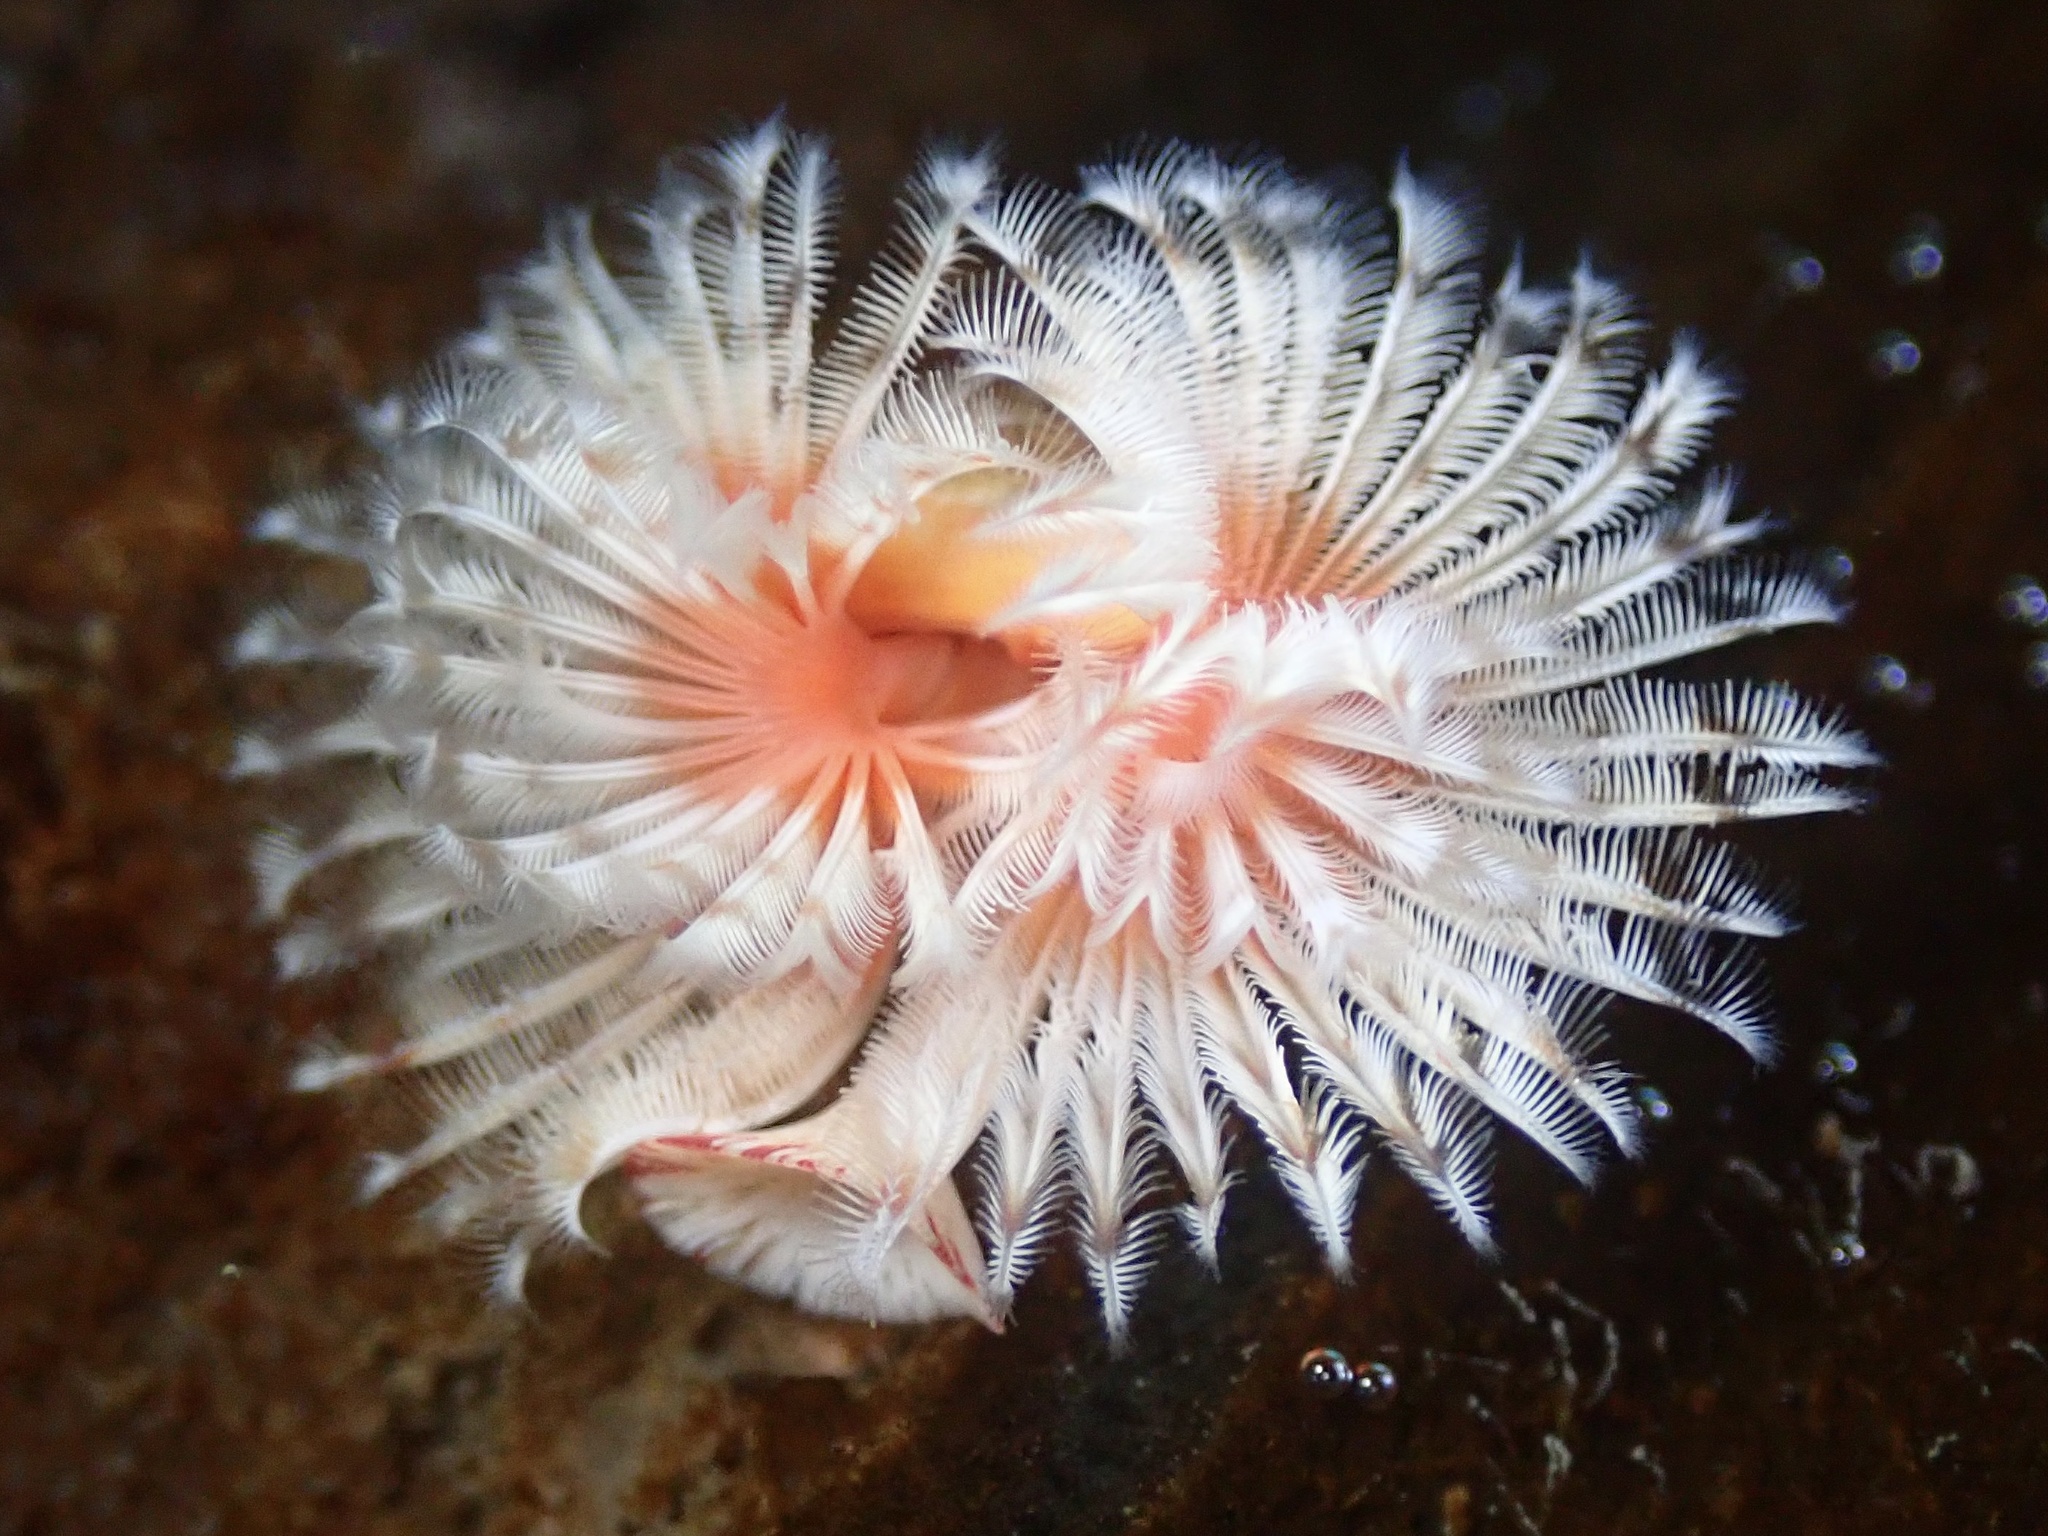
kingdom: Animalia
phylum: Annelida
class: Polychaeta
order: Sabellida
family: Serpulidae
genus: Serpula
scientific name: Serpula columbiana
